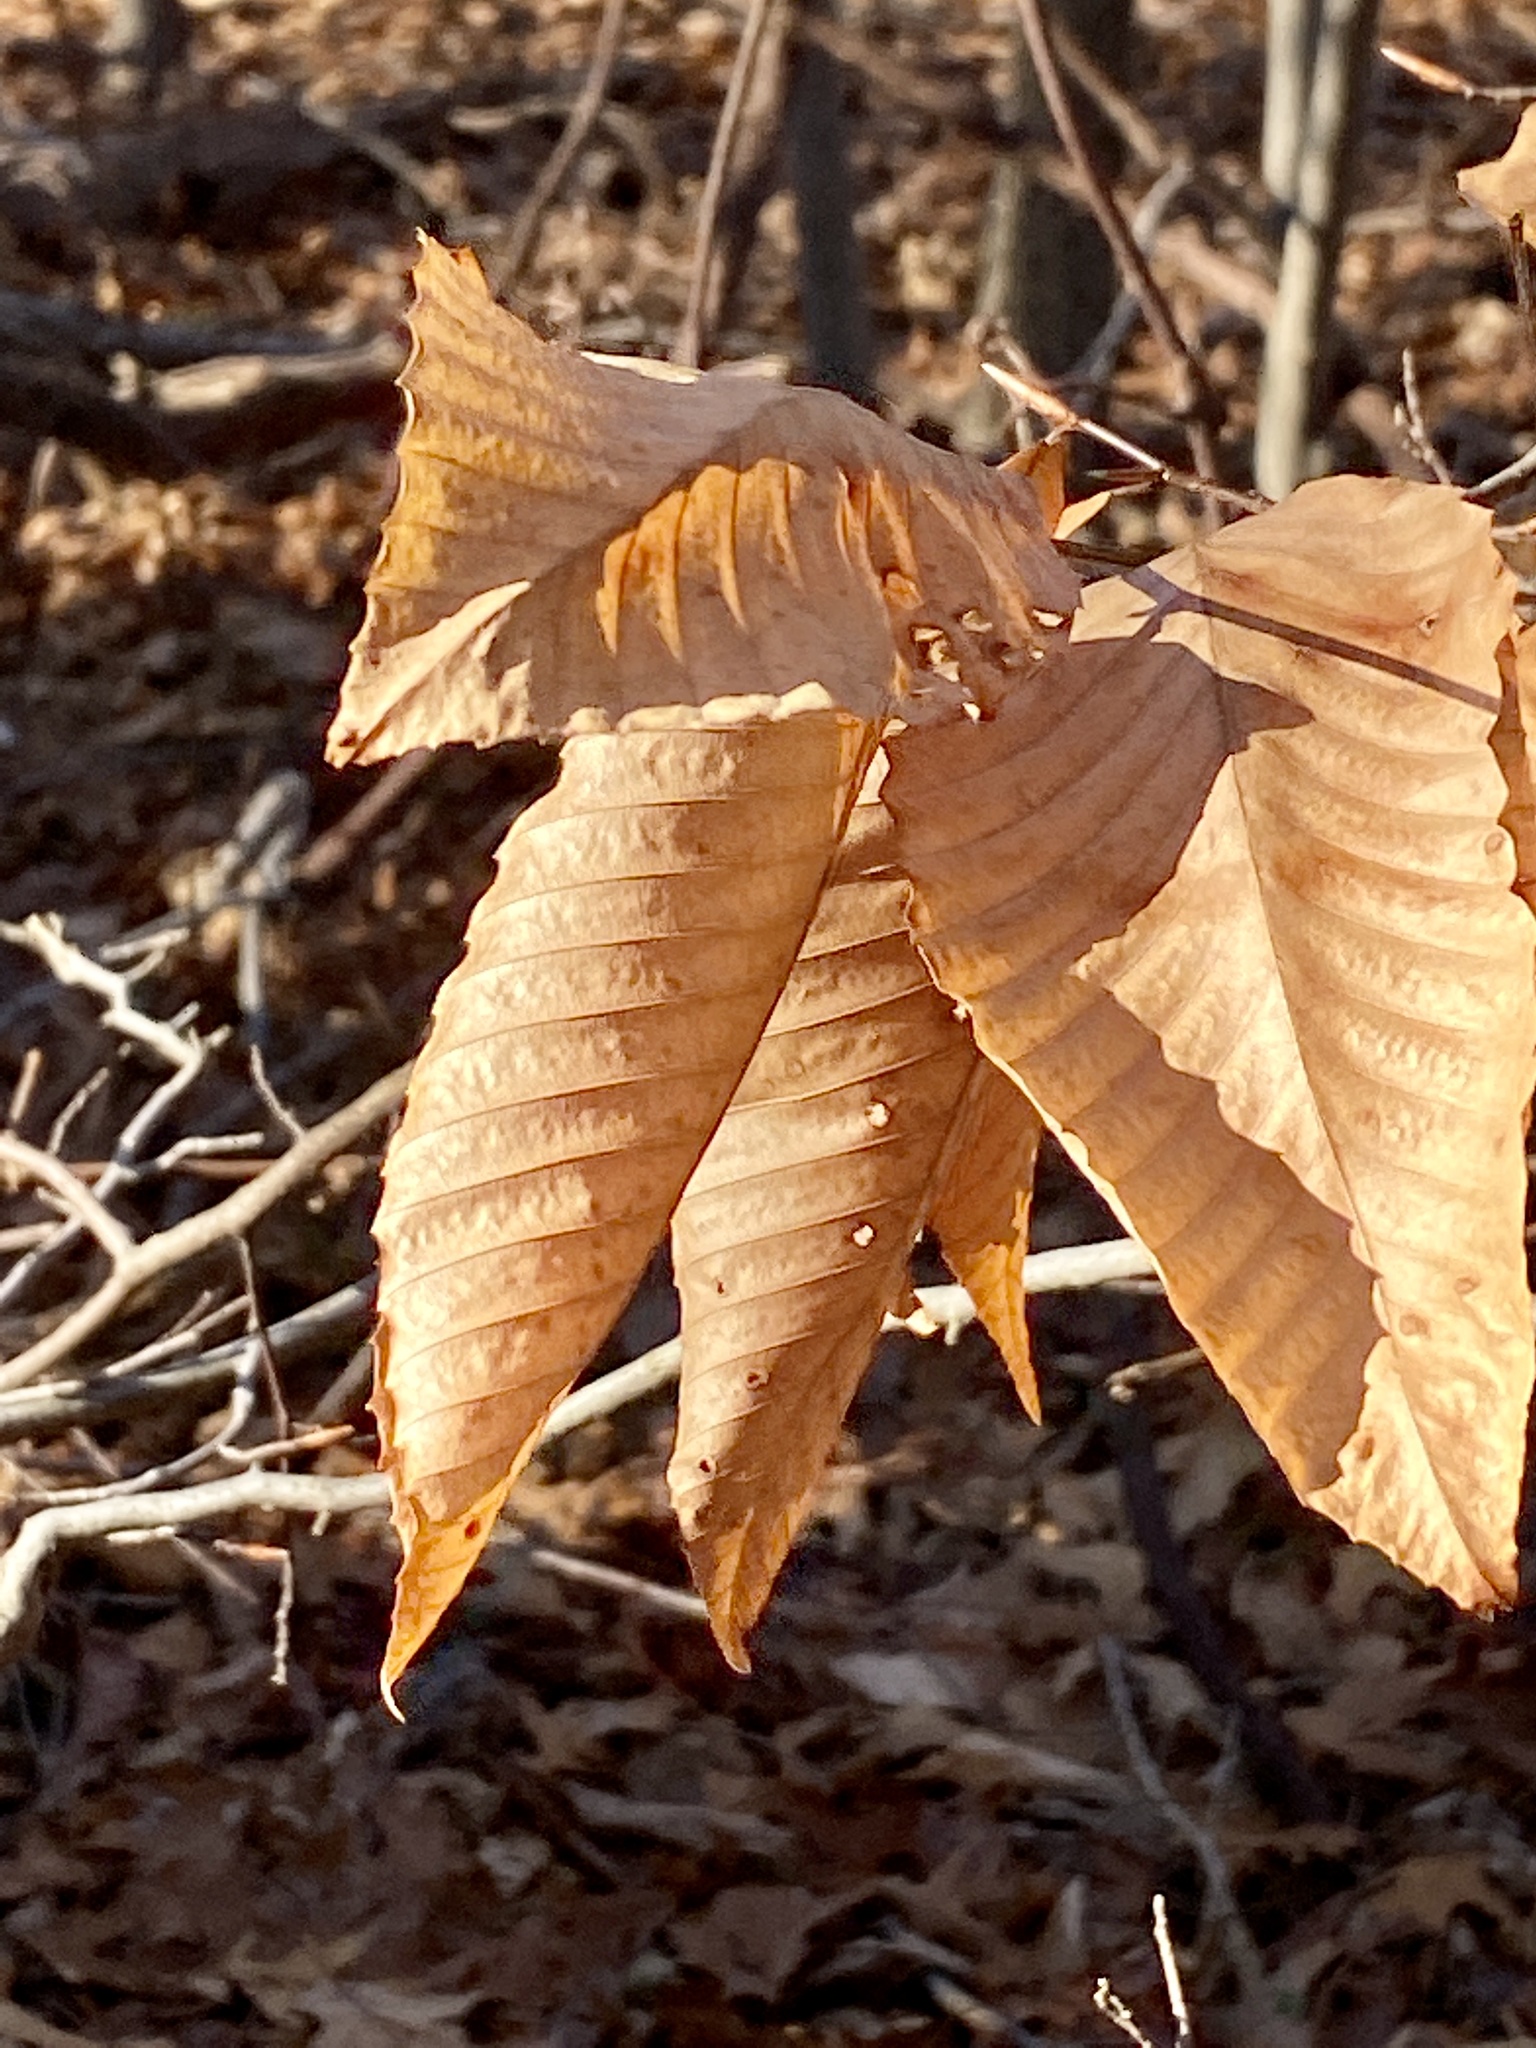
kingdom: Plantae
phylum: Tracheophyta
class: Magnoliopsida
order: Fagales
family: Fagaceae
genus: Fagus
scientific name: Fagus grandifolia
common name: American beech
